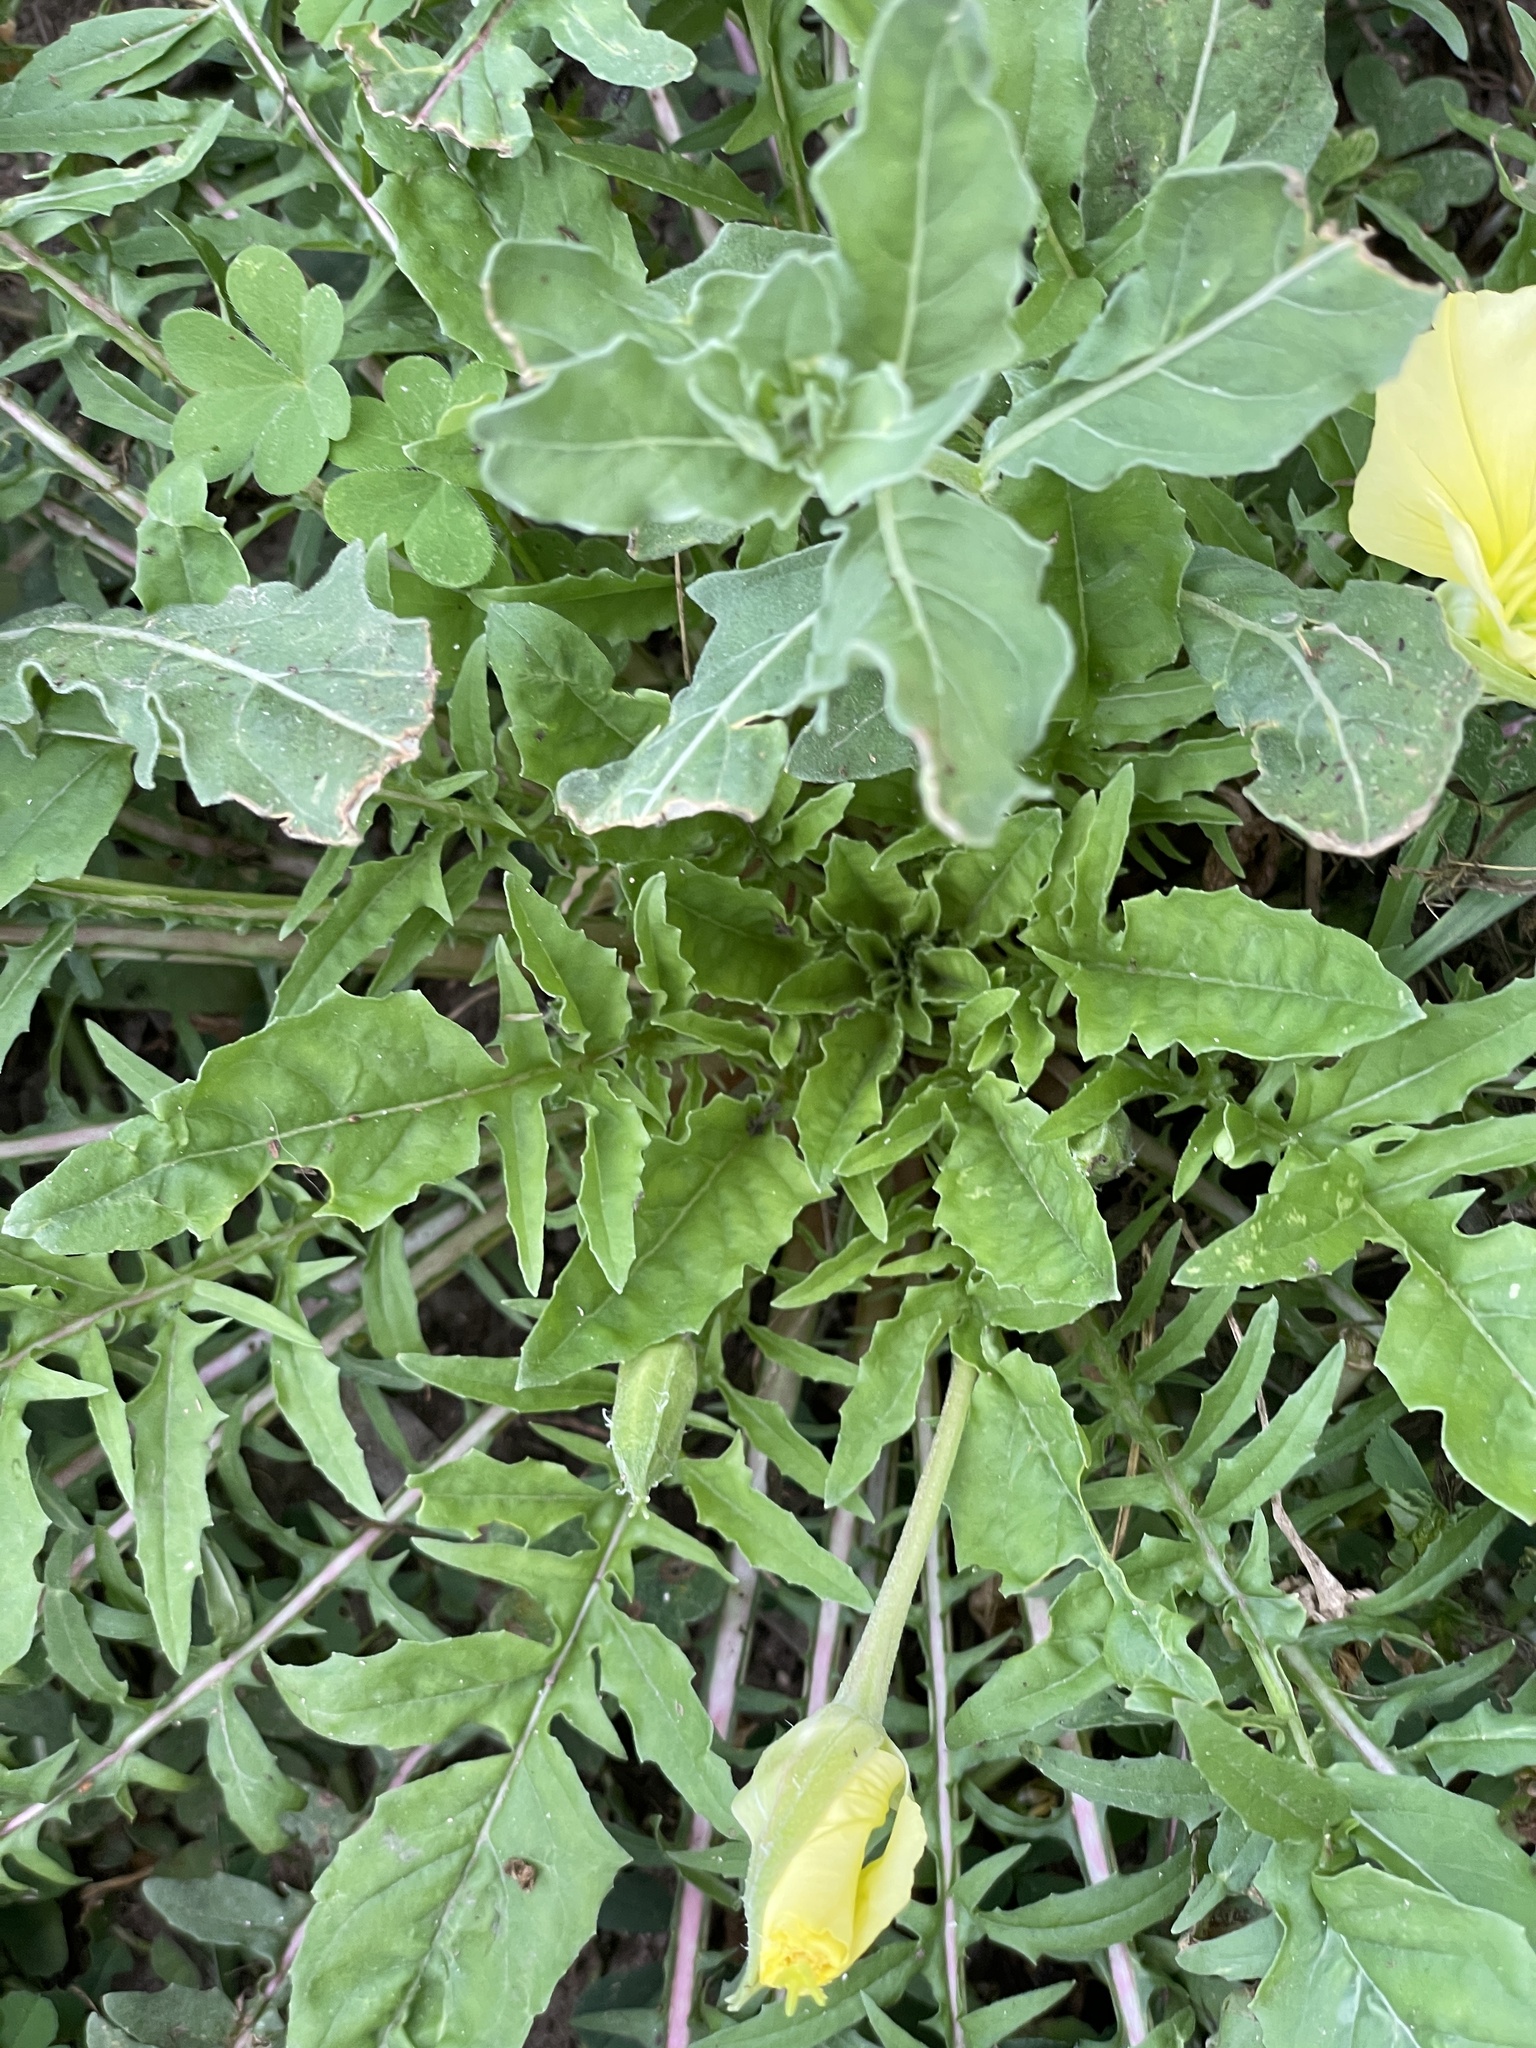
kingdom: Plantae
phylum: Tracheophyta
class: Magnoliopsida
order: Myrtales
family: Onagraceae
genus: Oenothera
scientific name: Oenothera triloba
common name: Sessile evening-primrose
